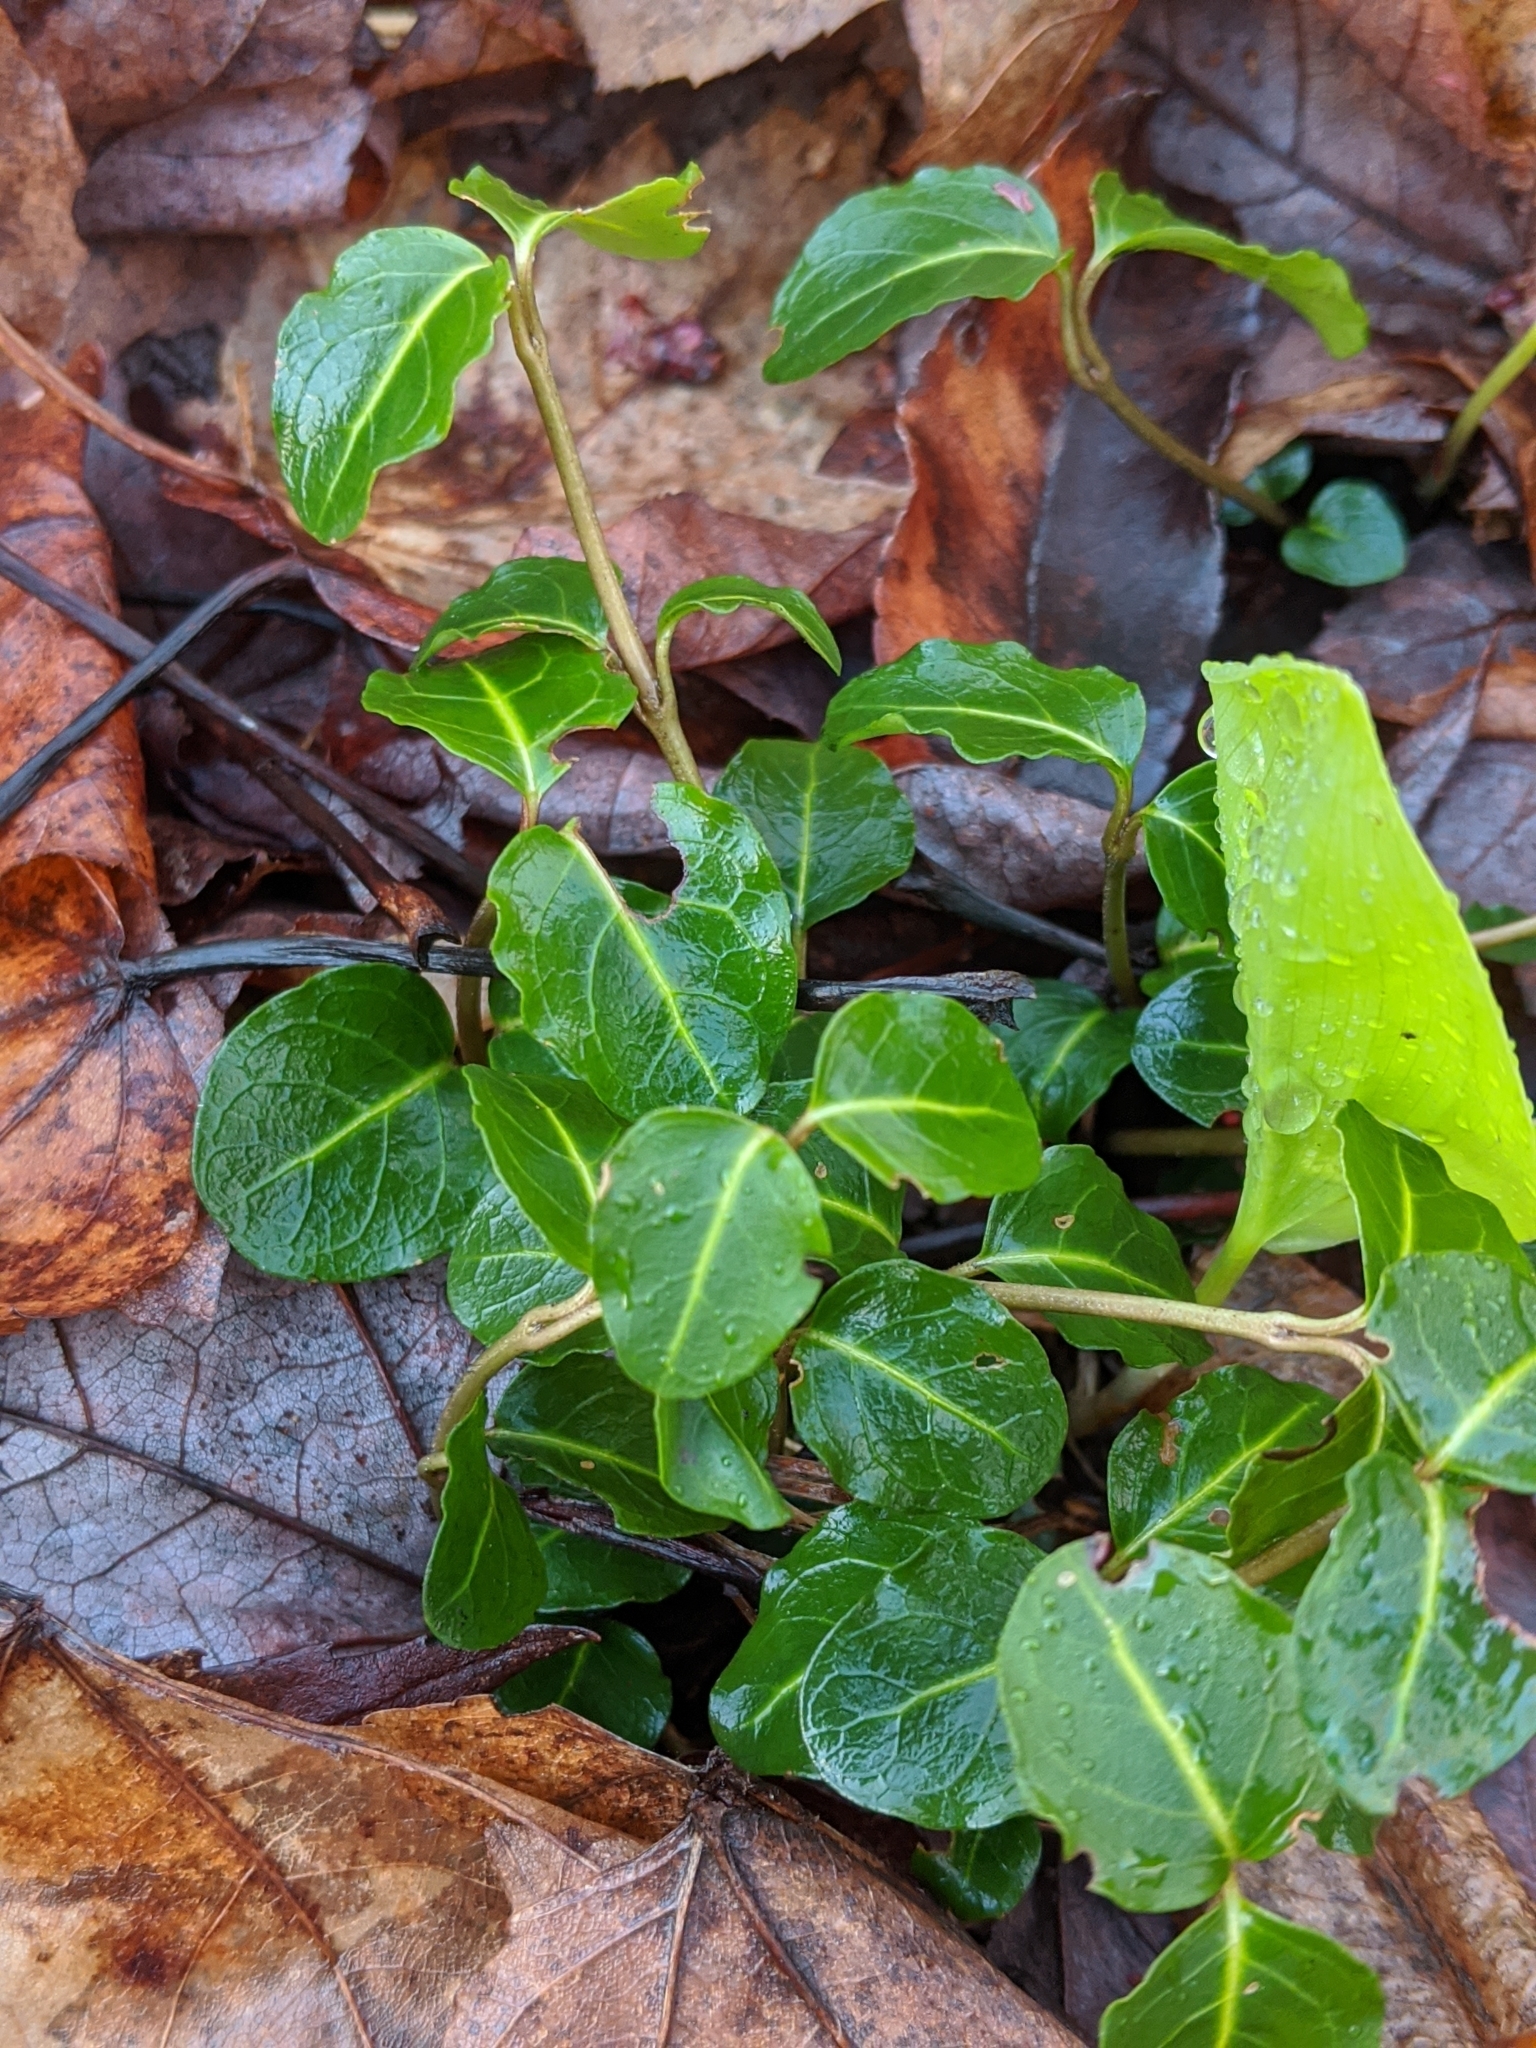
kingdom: Plantae
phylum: Tracheophyta
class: Magnoliopsida
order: Gentianales
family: Rubiaceae
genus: Mitchella
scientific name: Mitchella repens
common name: Partridge-berry
